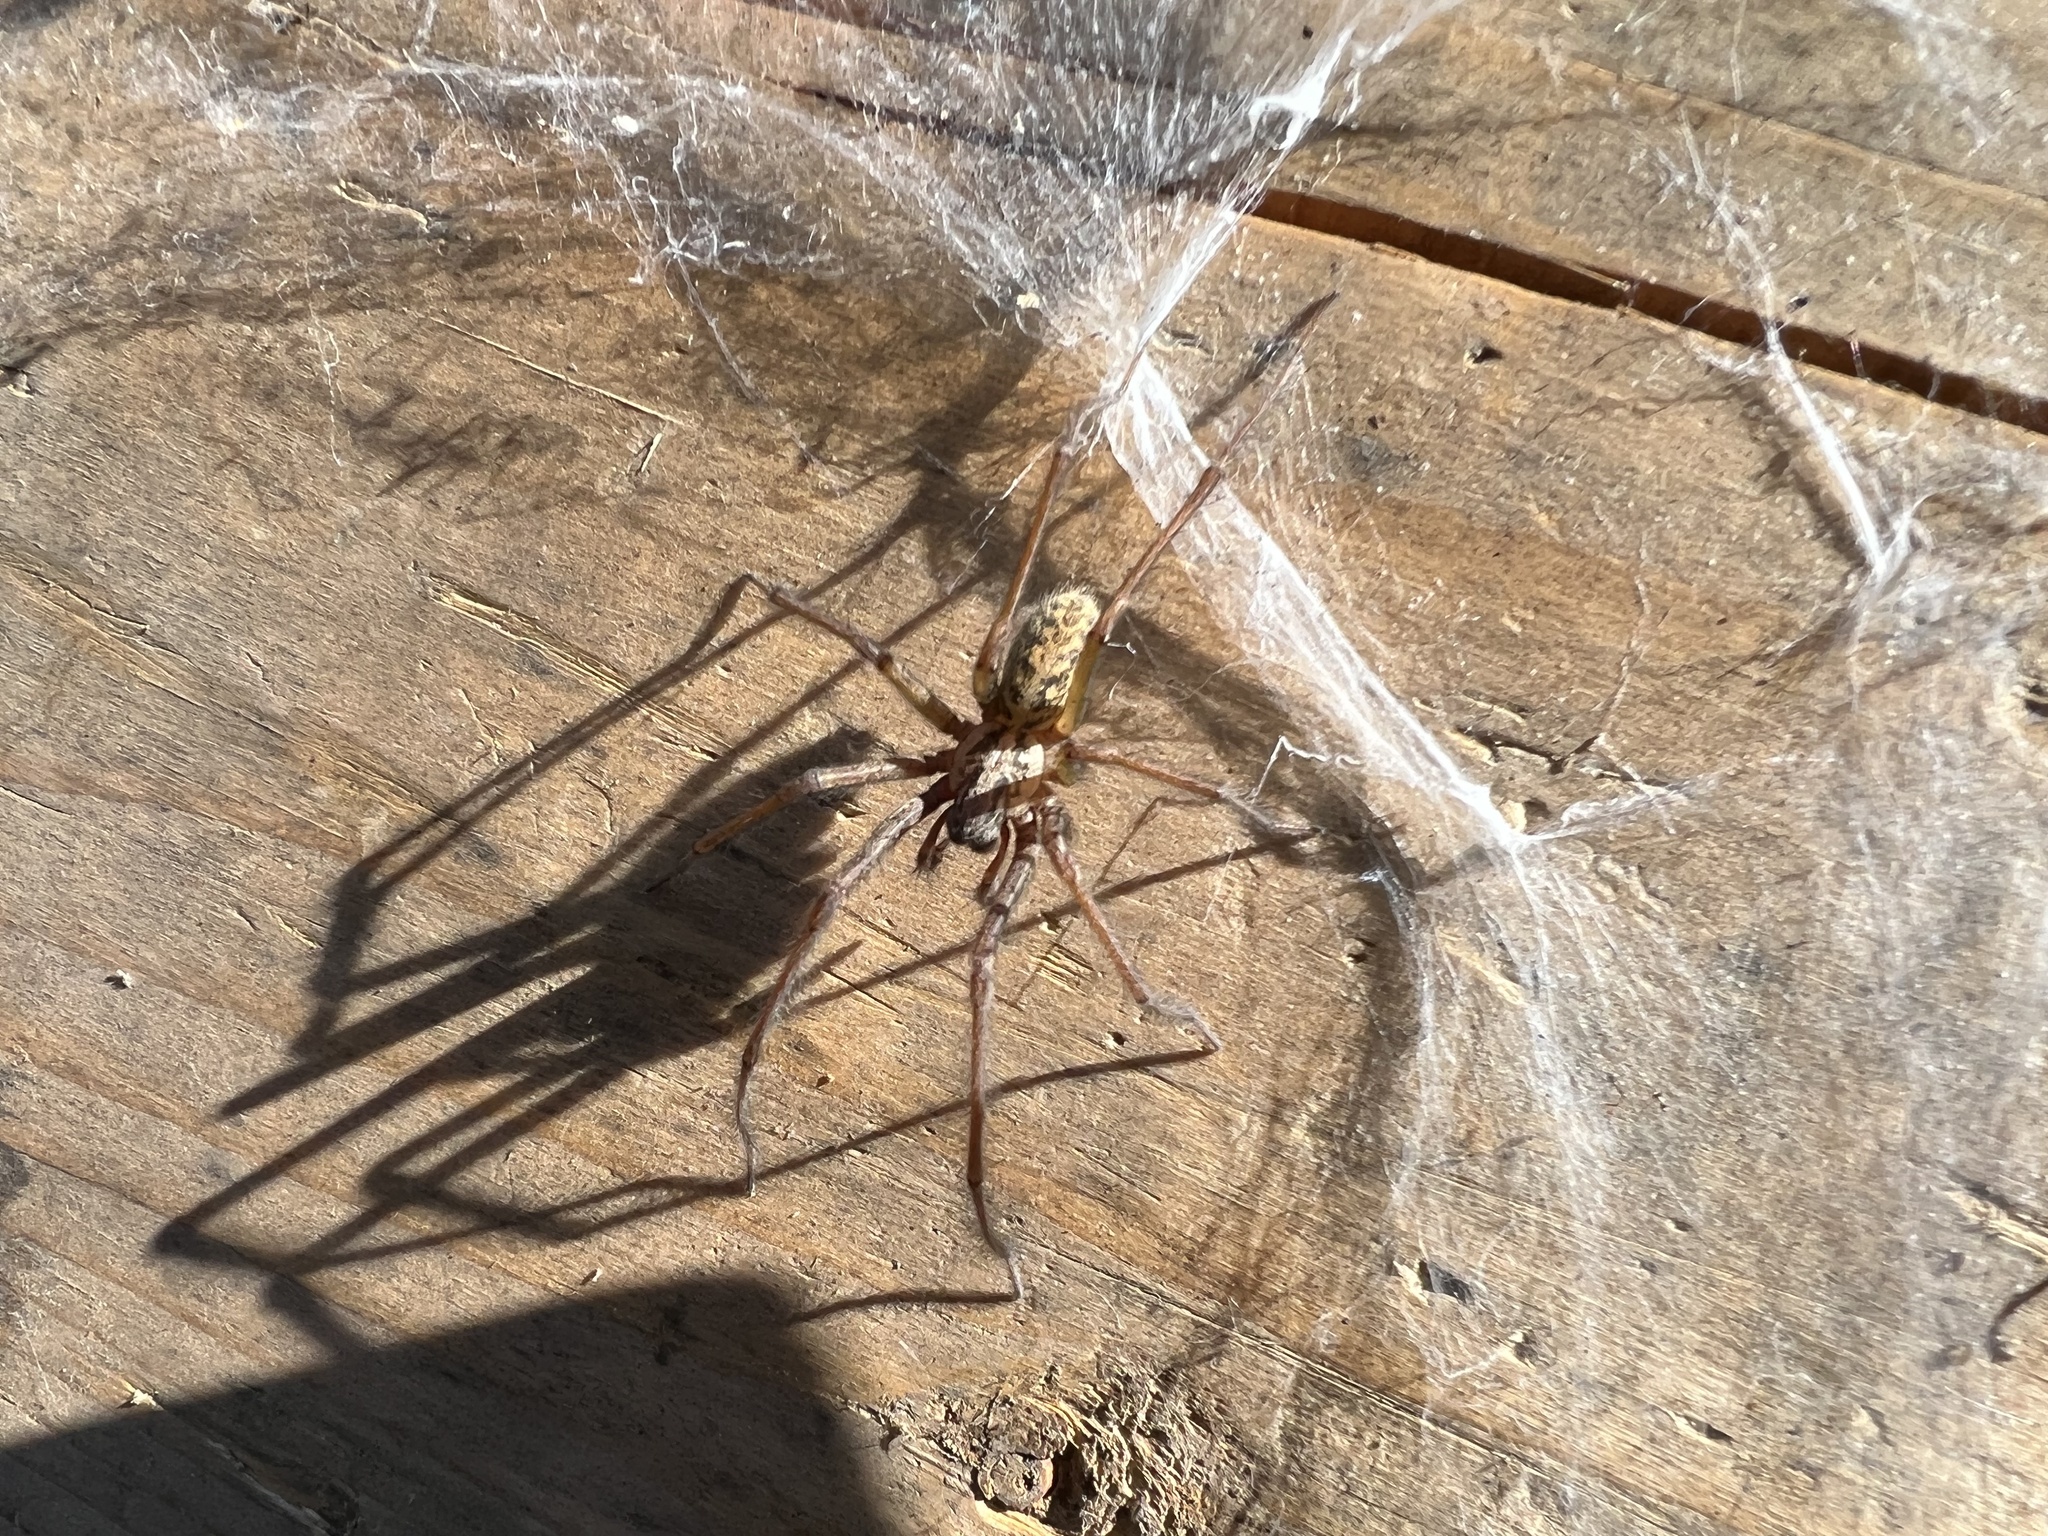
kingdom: Animalia
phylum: Arthropoda
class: Arachnida
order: Araneae
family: Agelenidae
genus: Eratigena
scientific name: Eratigena duellica
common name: Giant house spider
